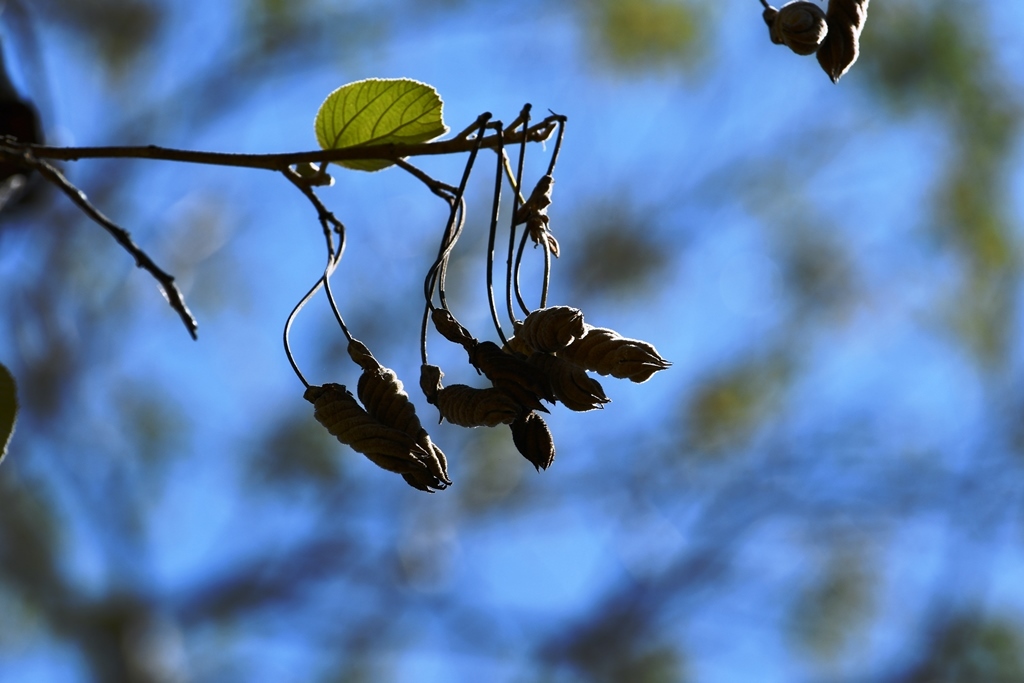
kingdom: Plantae
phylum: Tracheophyta
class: Magnoliopsida
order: Malvales
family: Malvaceae
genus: Helicteres
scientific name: Helicteres baruensis
